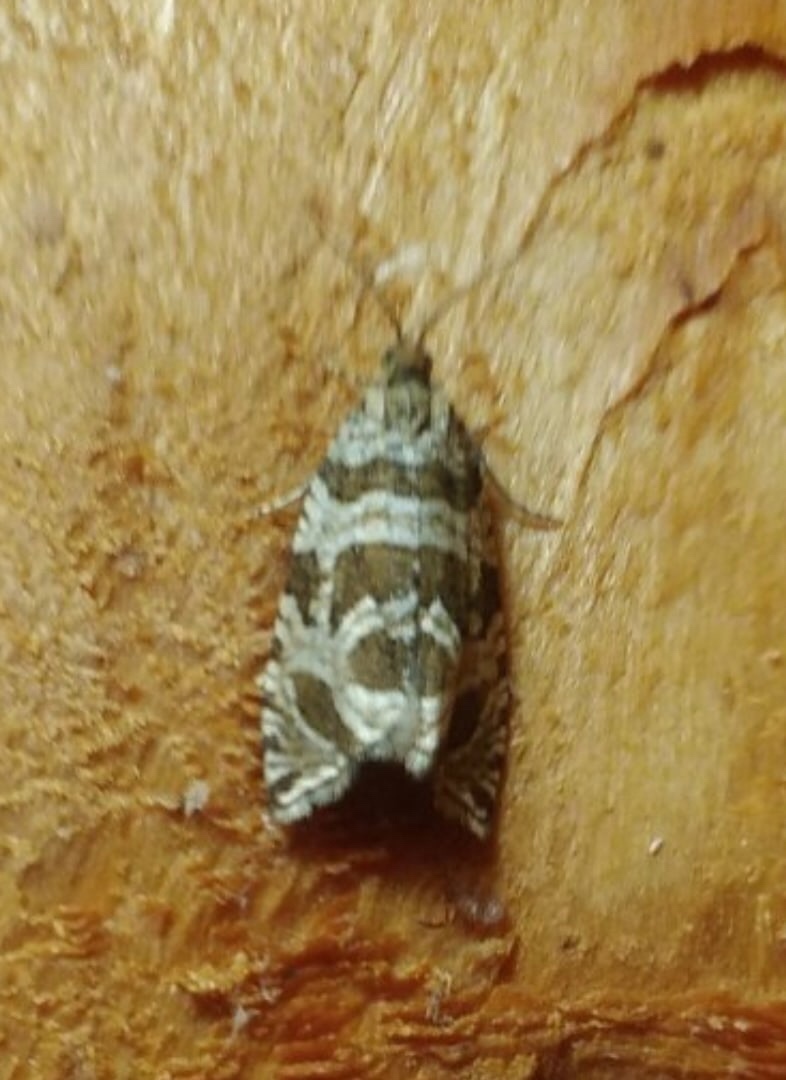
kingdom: Animalia
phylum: Arthropoda
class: Insecta
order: Lepidoptera
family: Tortricidae
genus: Syricoris
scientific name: Syricoris rivulana
